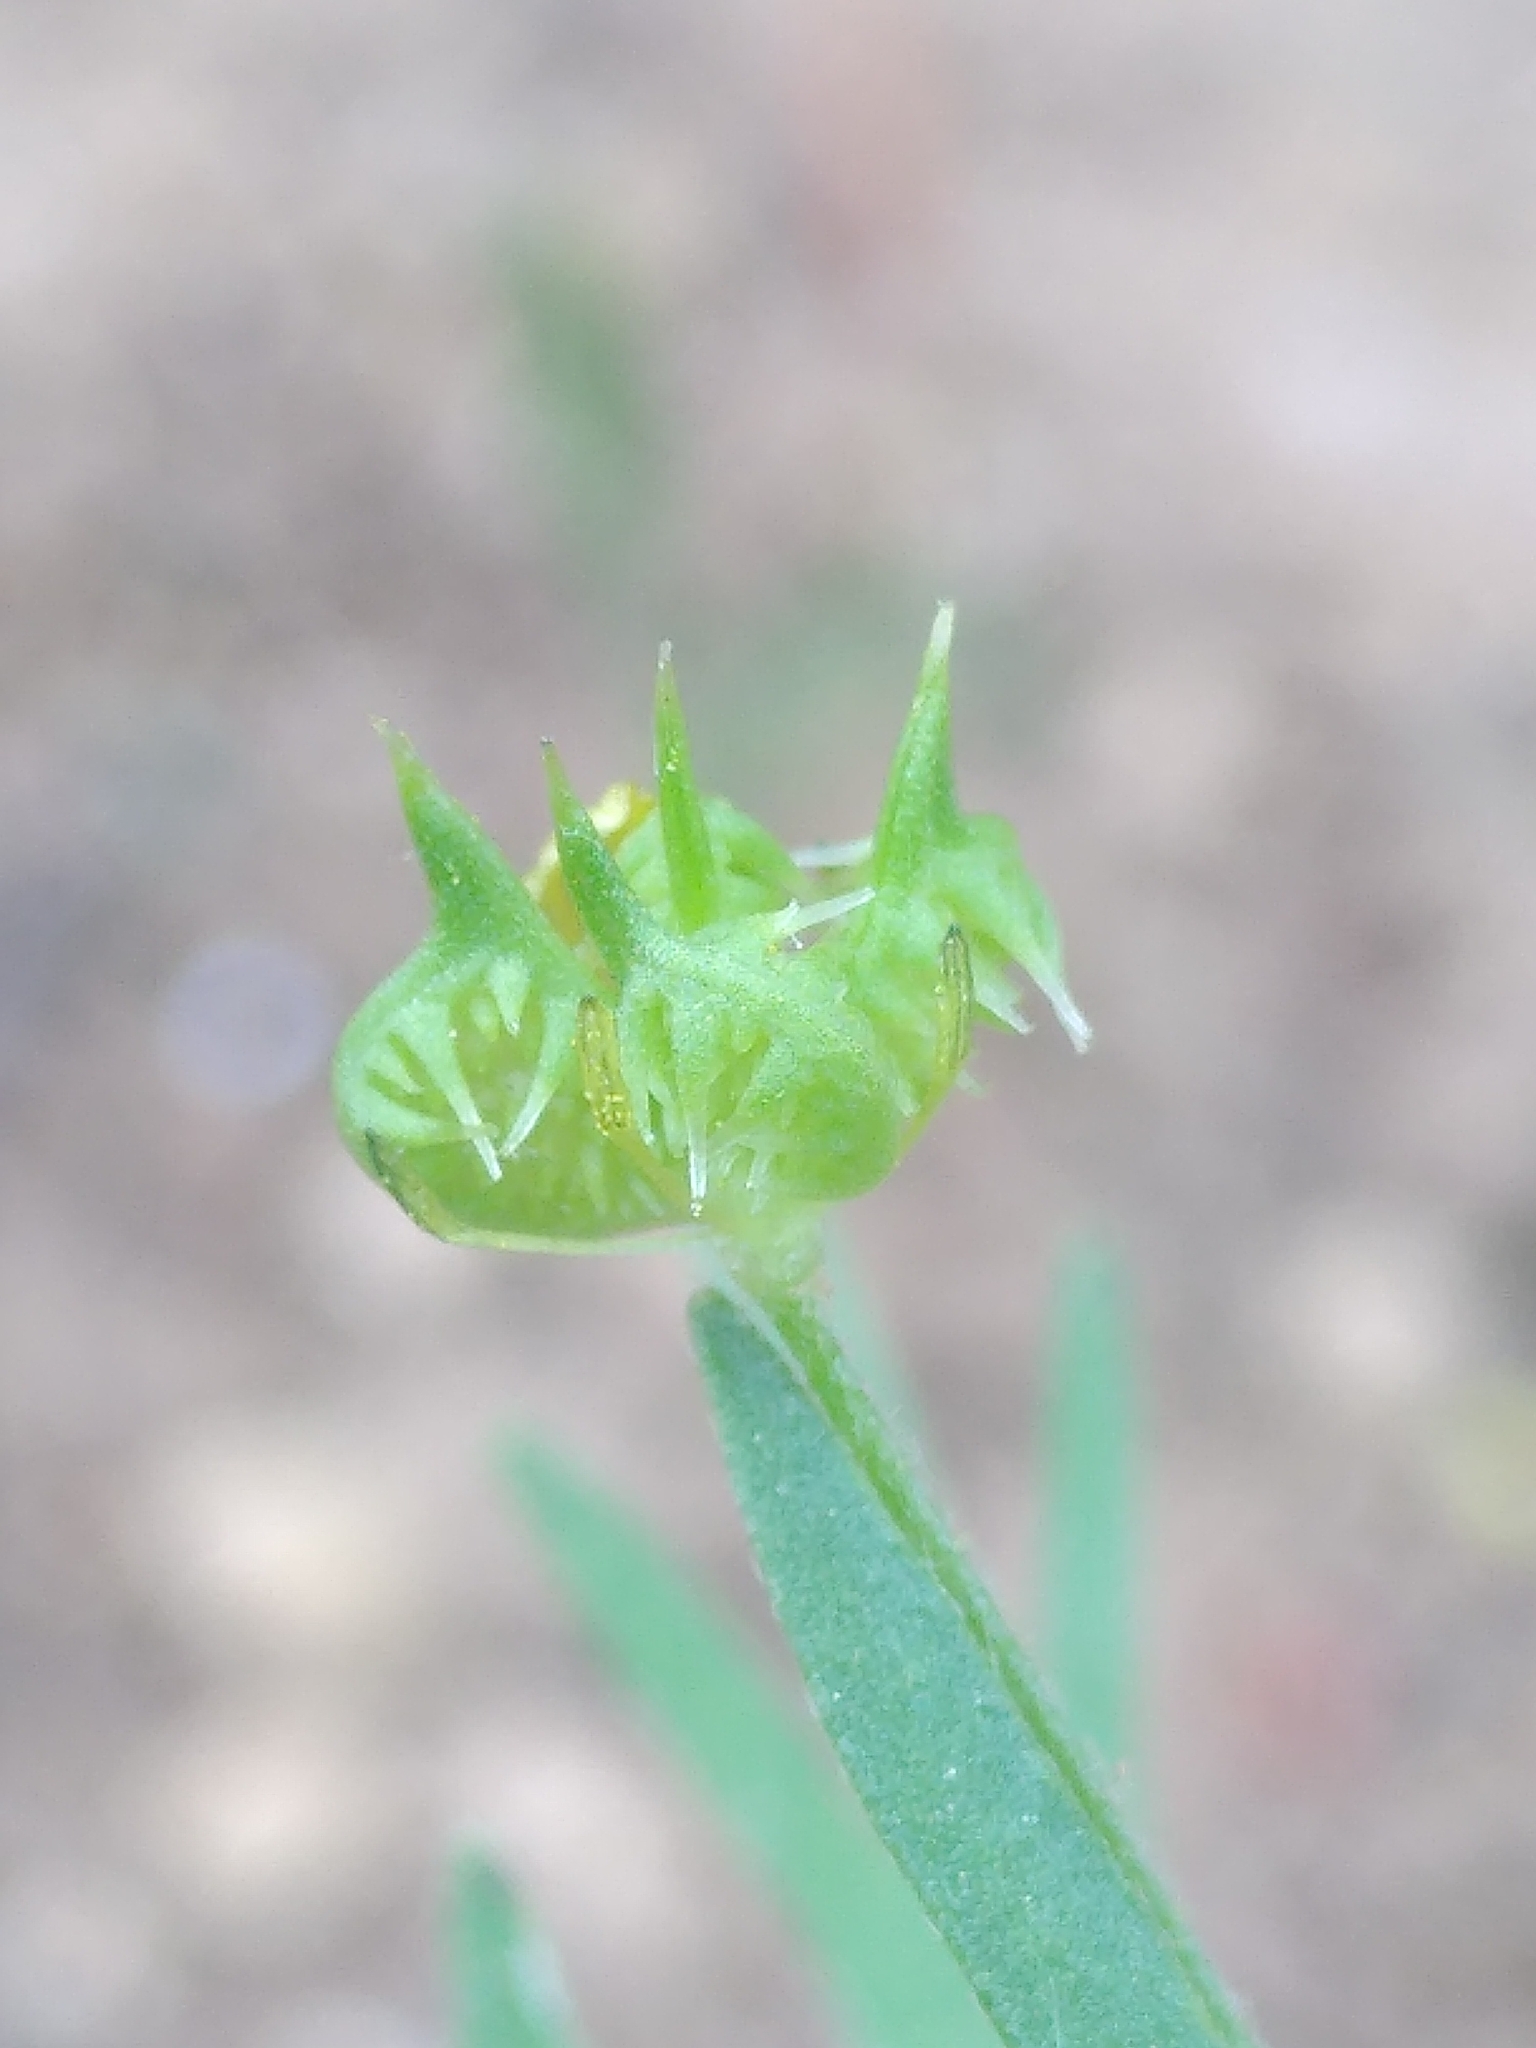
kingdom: Plantae
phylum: Tracheophyta
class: Magnoliopsida
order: Ranunculales
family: Ranunculaceae
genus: Ranunculus
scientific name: Ranunculus arvensis
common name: Corn buttercup
